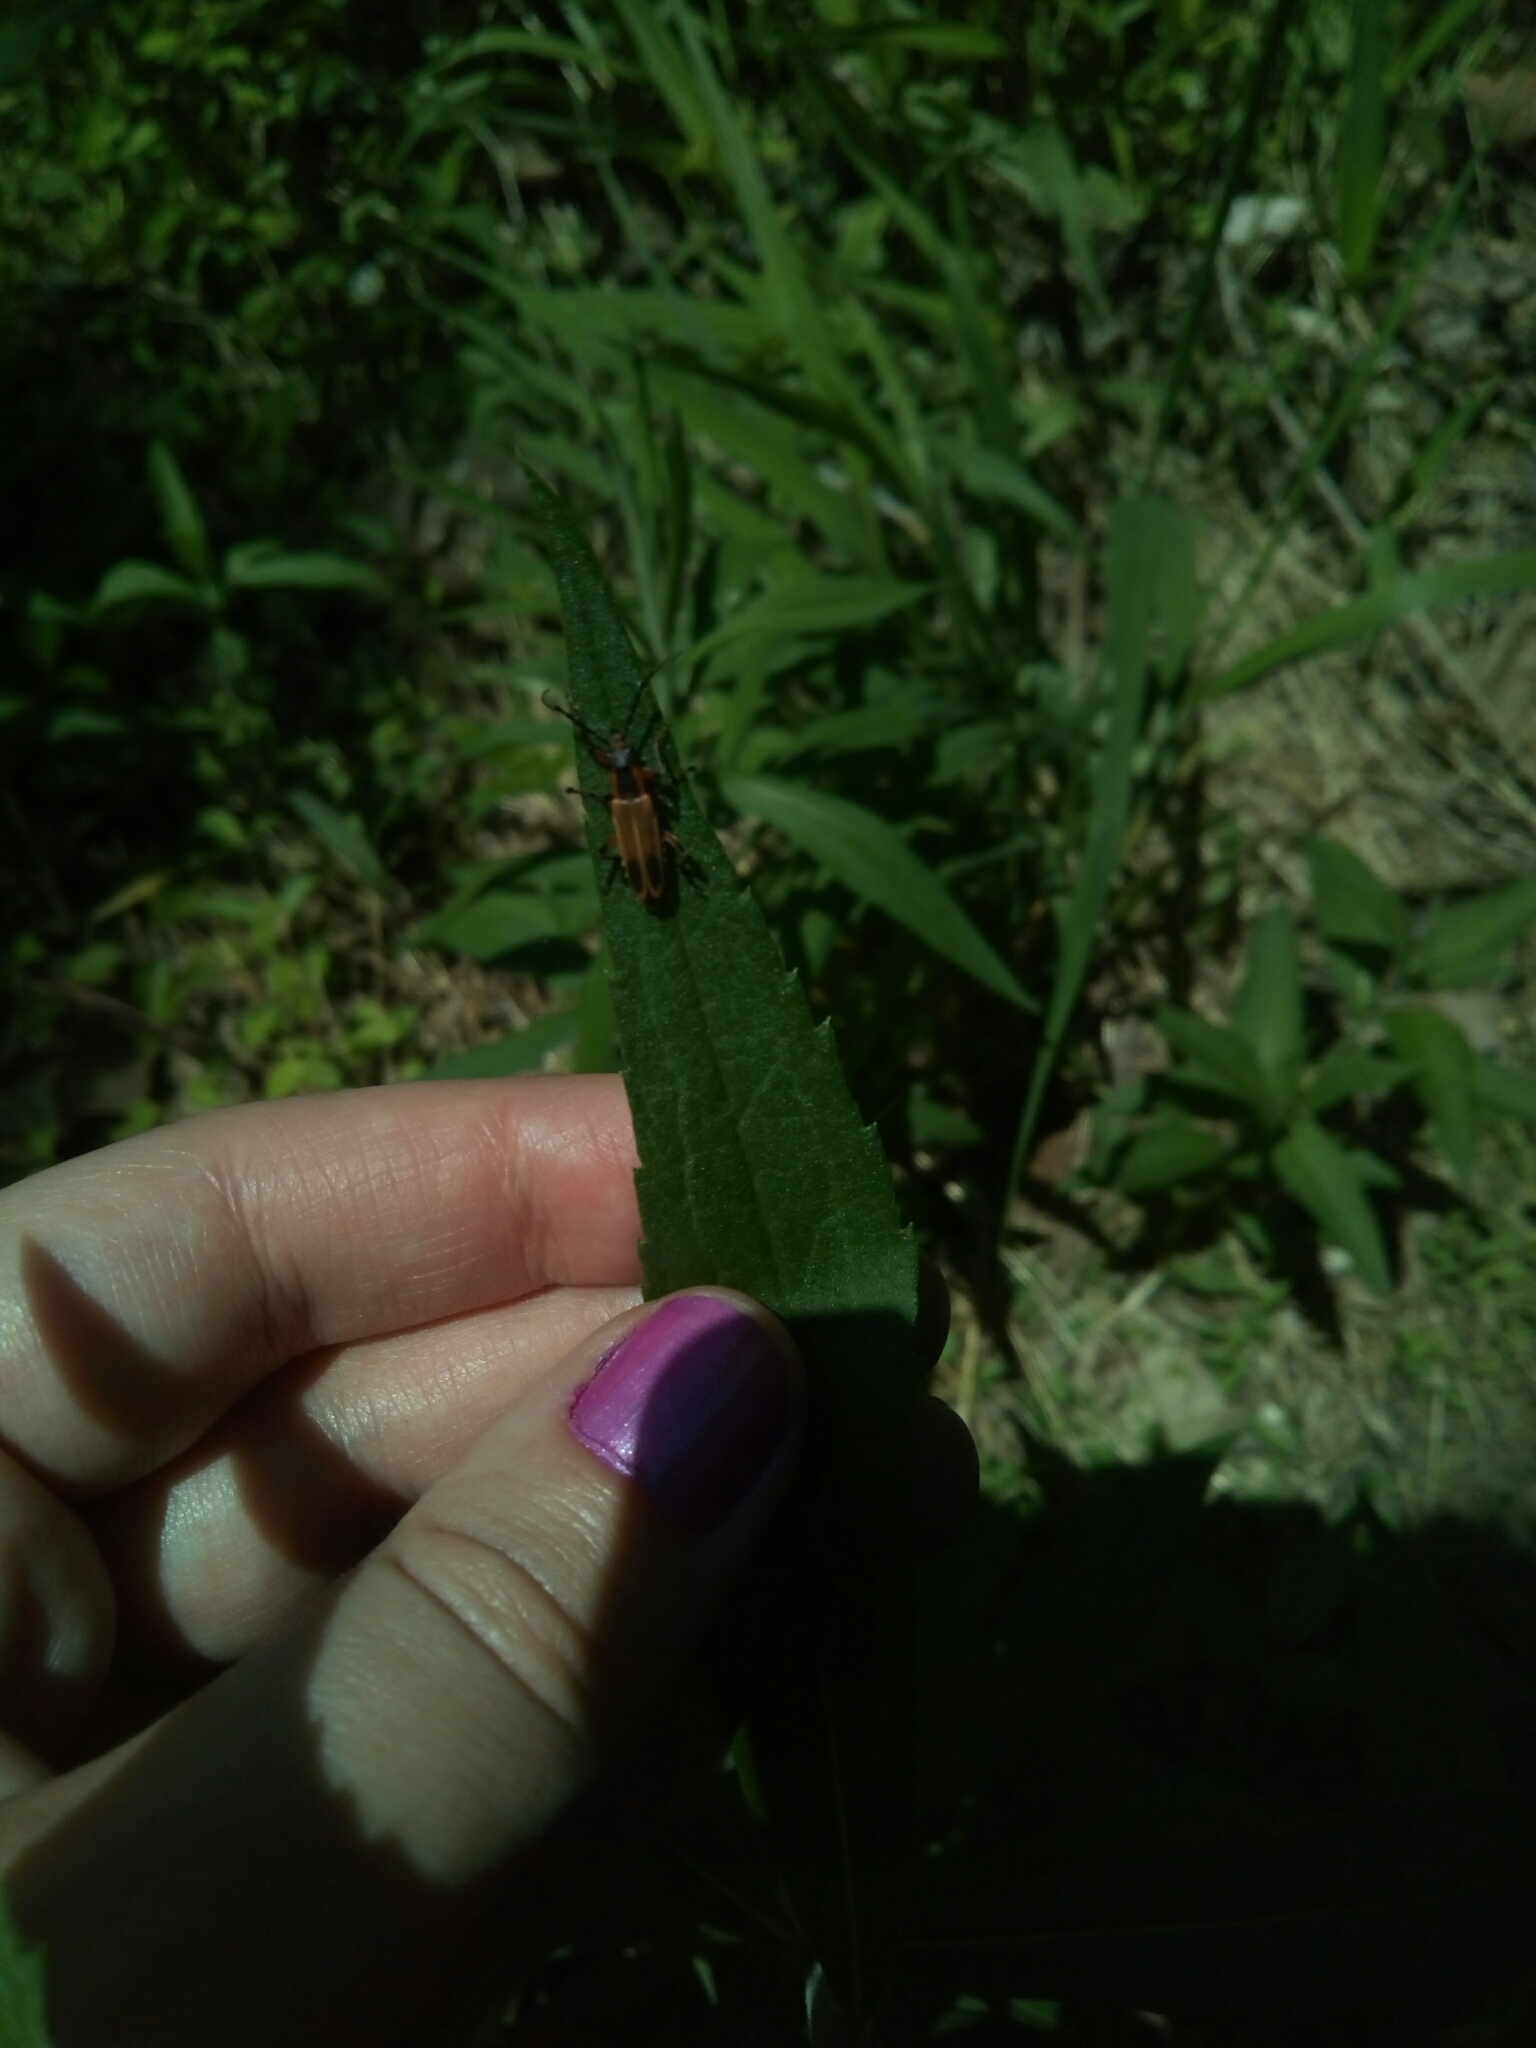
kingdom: Animalia
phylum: Arthropoda
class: Insecta
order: Coleoptera
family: Cantharidae
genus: Chauliognathus
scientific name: Chauliognathus marginatus
